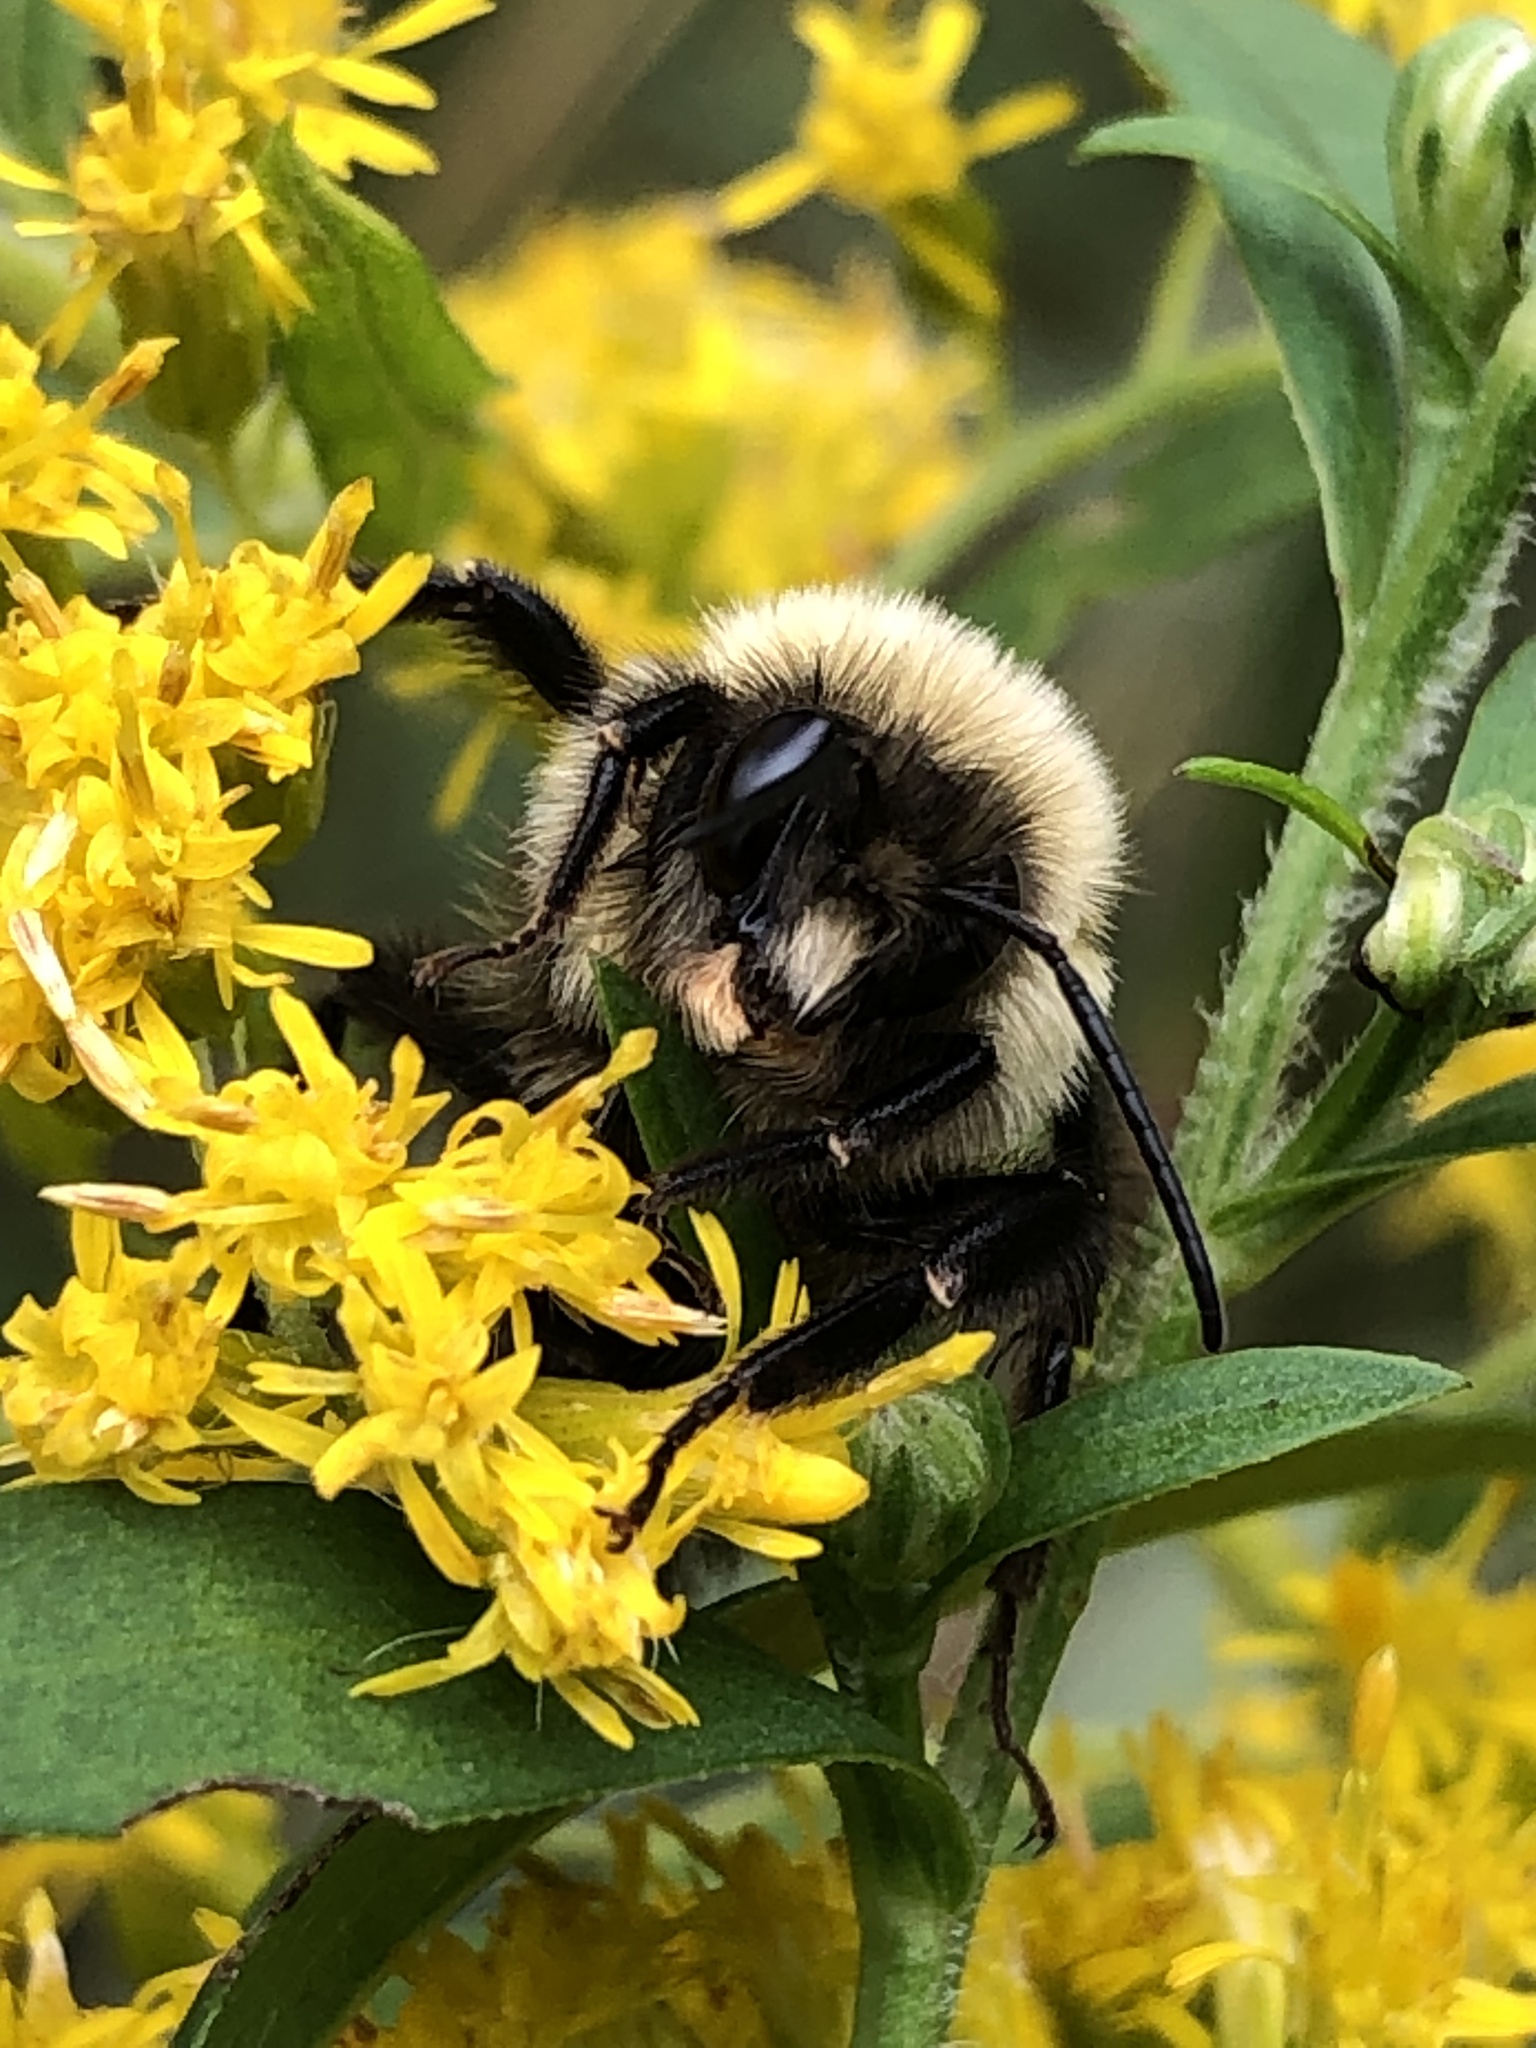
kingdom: Animalia
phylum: Arthropoda
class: Insecta
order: Hymenoptera
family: Apidae
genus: Bombus
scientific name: Bombus impatiens
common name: Common eastern bumble bee
